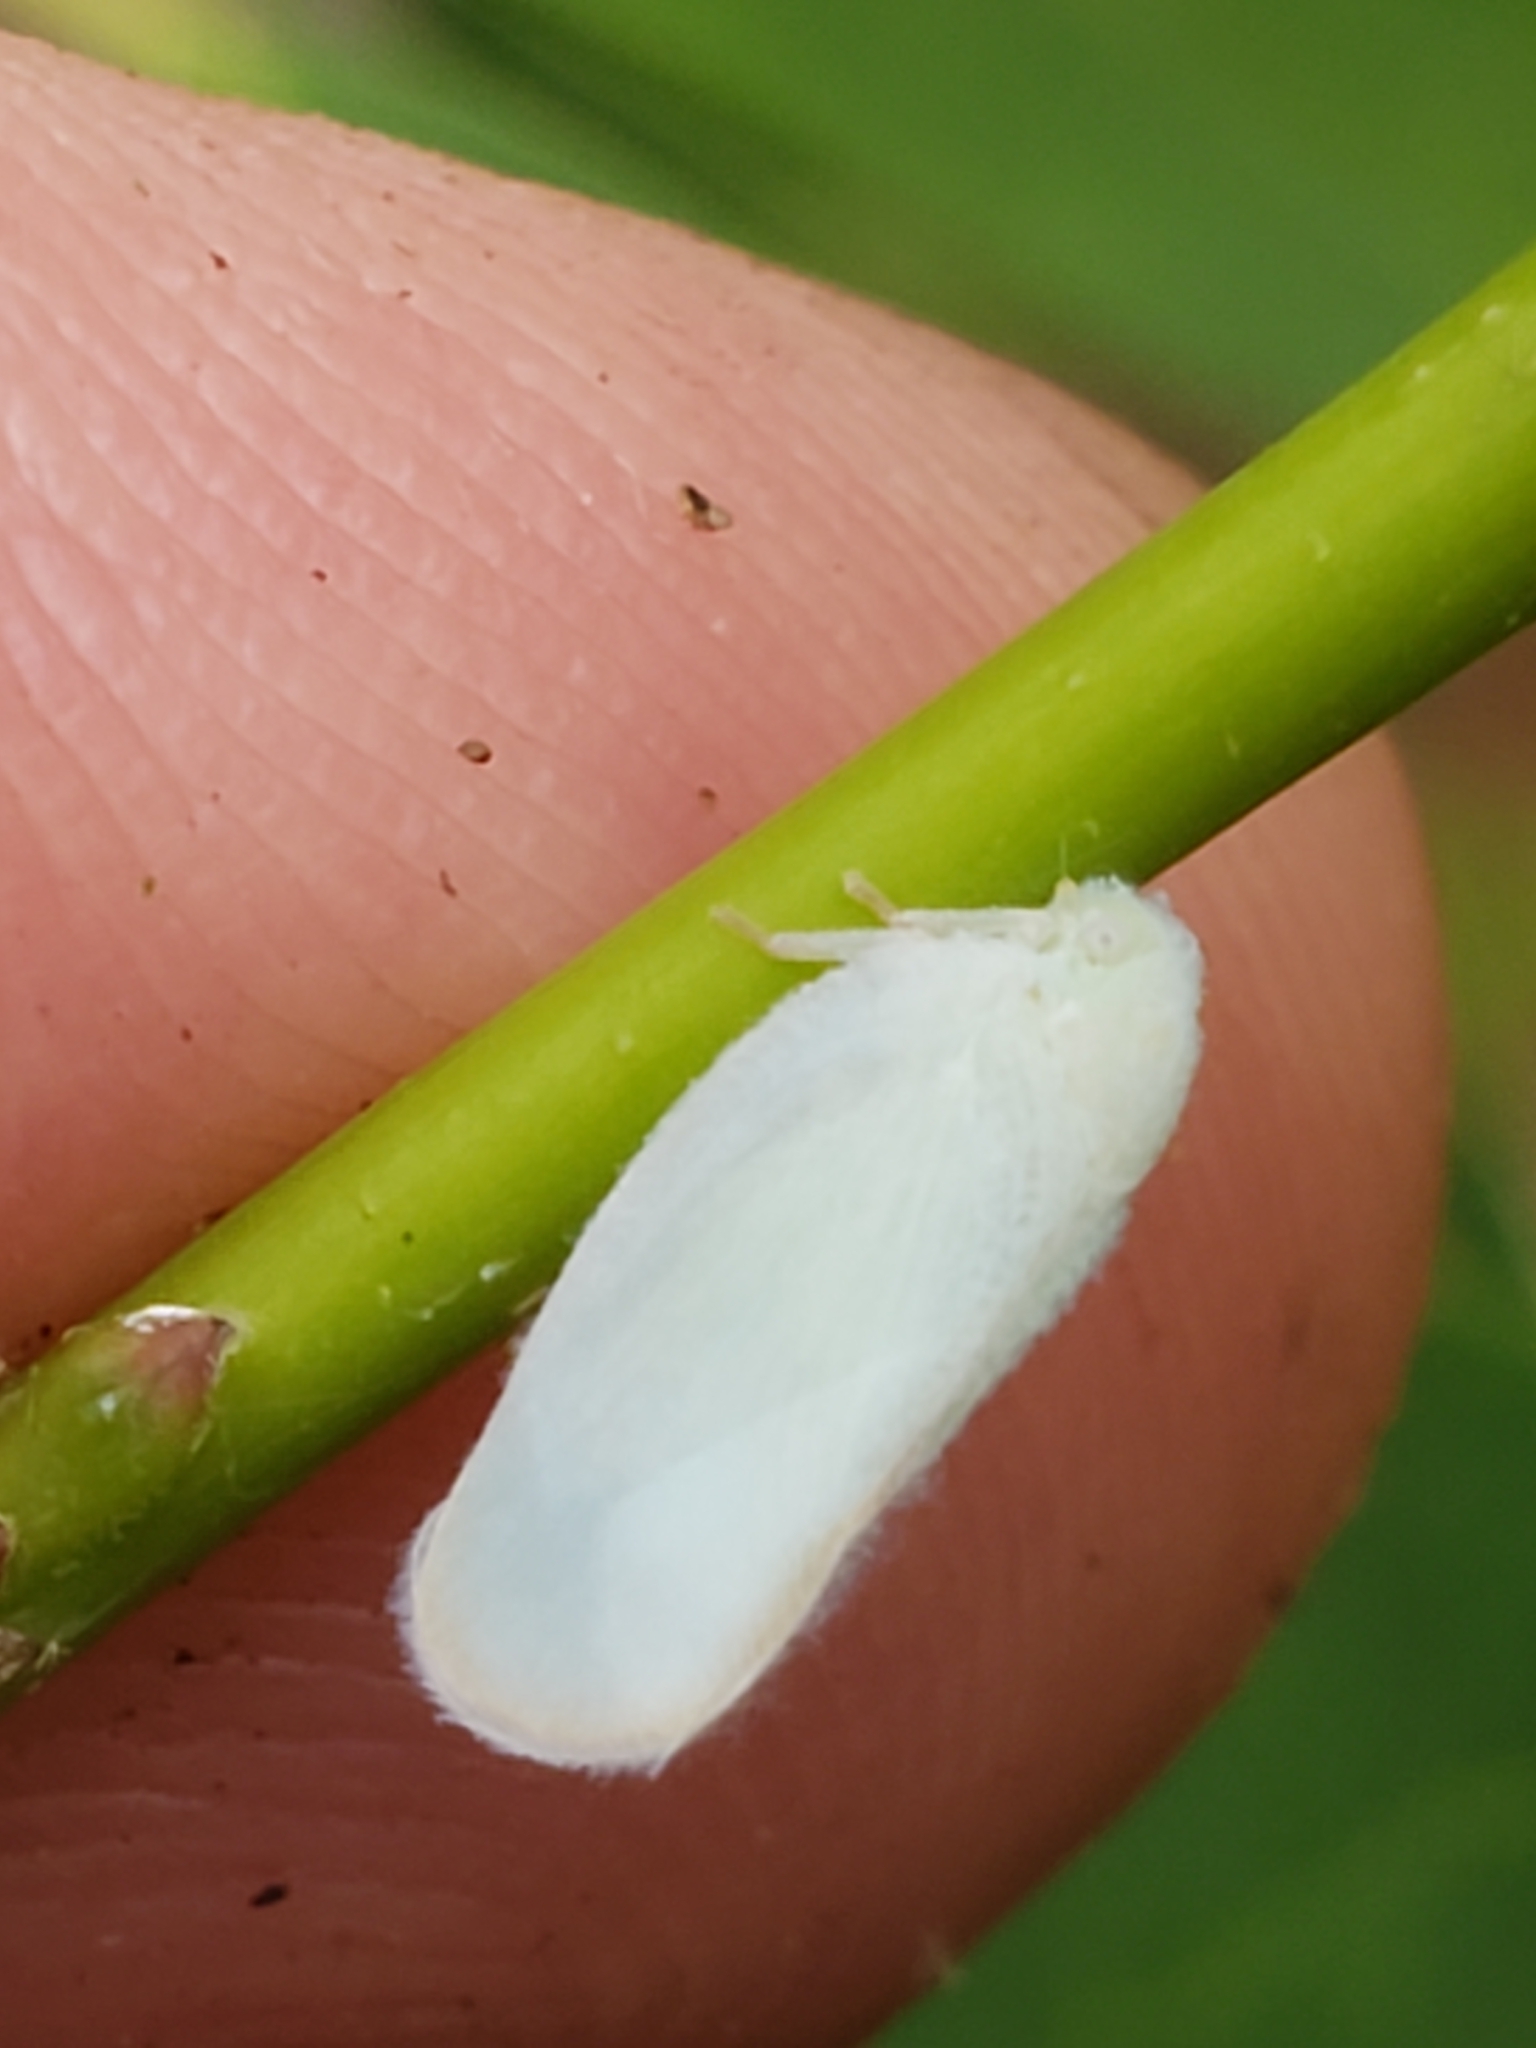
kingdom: Animalia
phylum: Arthropoda
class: Insecta
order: Hemiptera
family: Flatidae
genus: Ormenoides
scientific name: Ormenoides venusta
